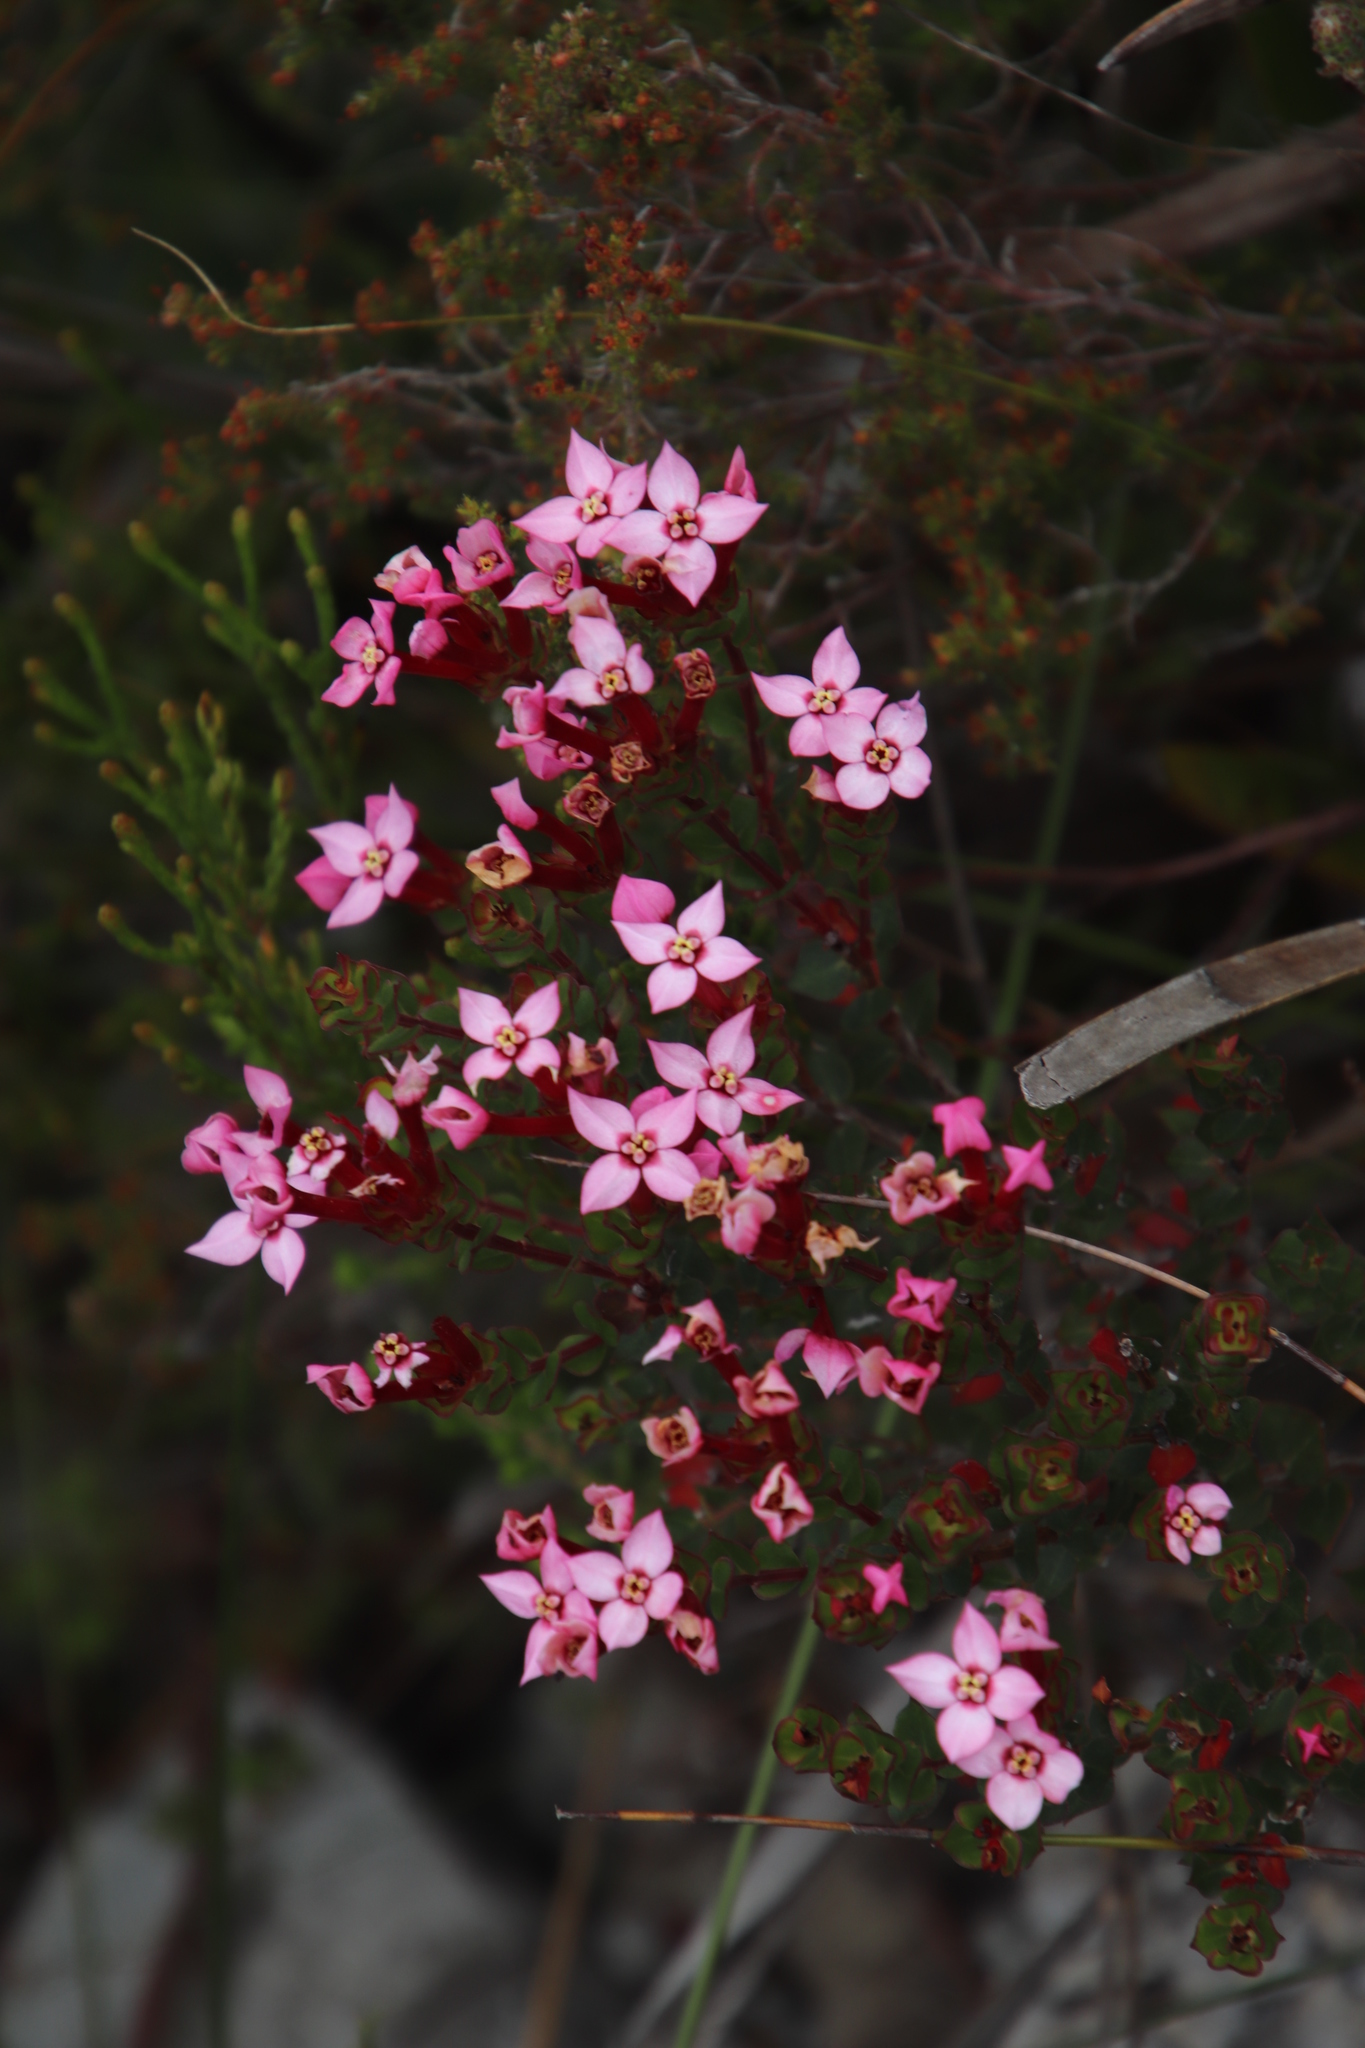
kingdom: Plantae
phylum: Tracheophyta
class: Magnoliopsida
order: Myrtales
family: Penaeaceae
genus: Brachysiphon
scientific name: Brachysiphon acutus
